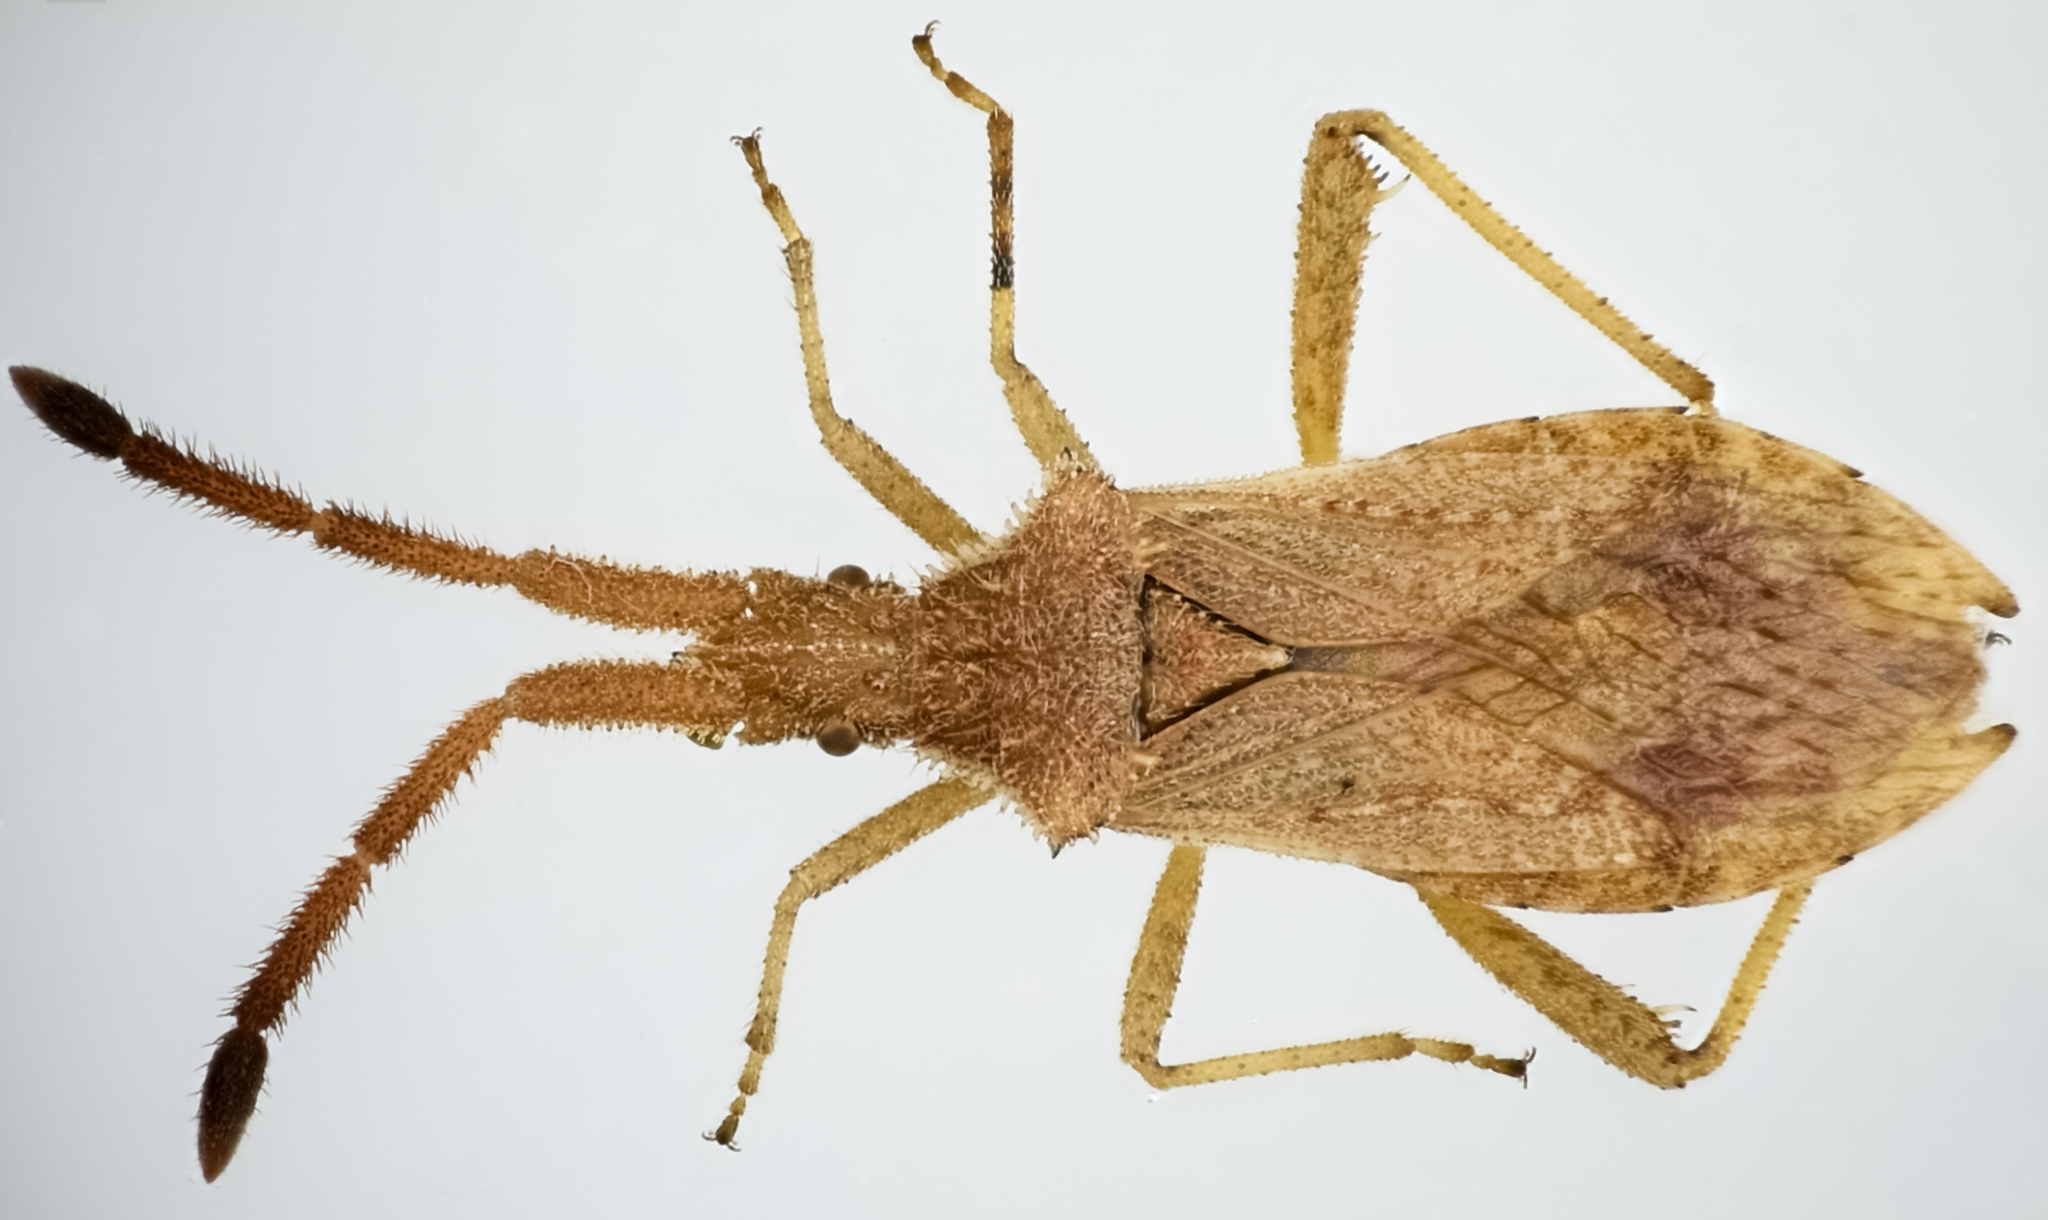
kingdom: Animalia
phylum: Arthropoda
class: Insecta
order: Hemiptera
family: Coreidae
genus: Coriomeris
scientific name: Coriomeris occidentalis
